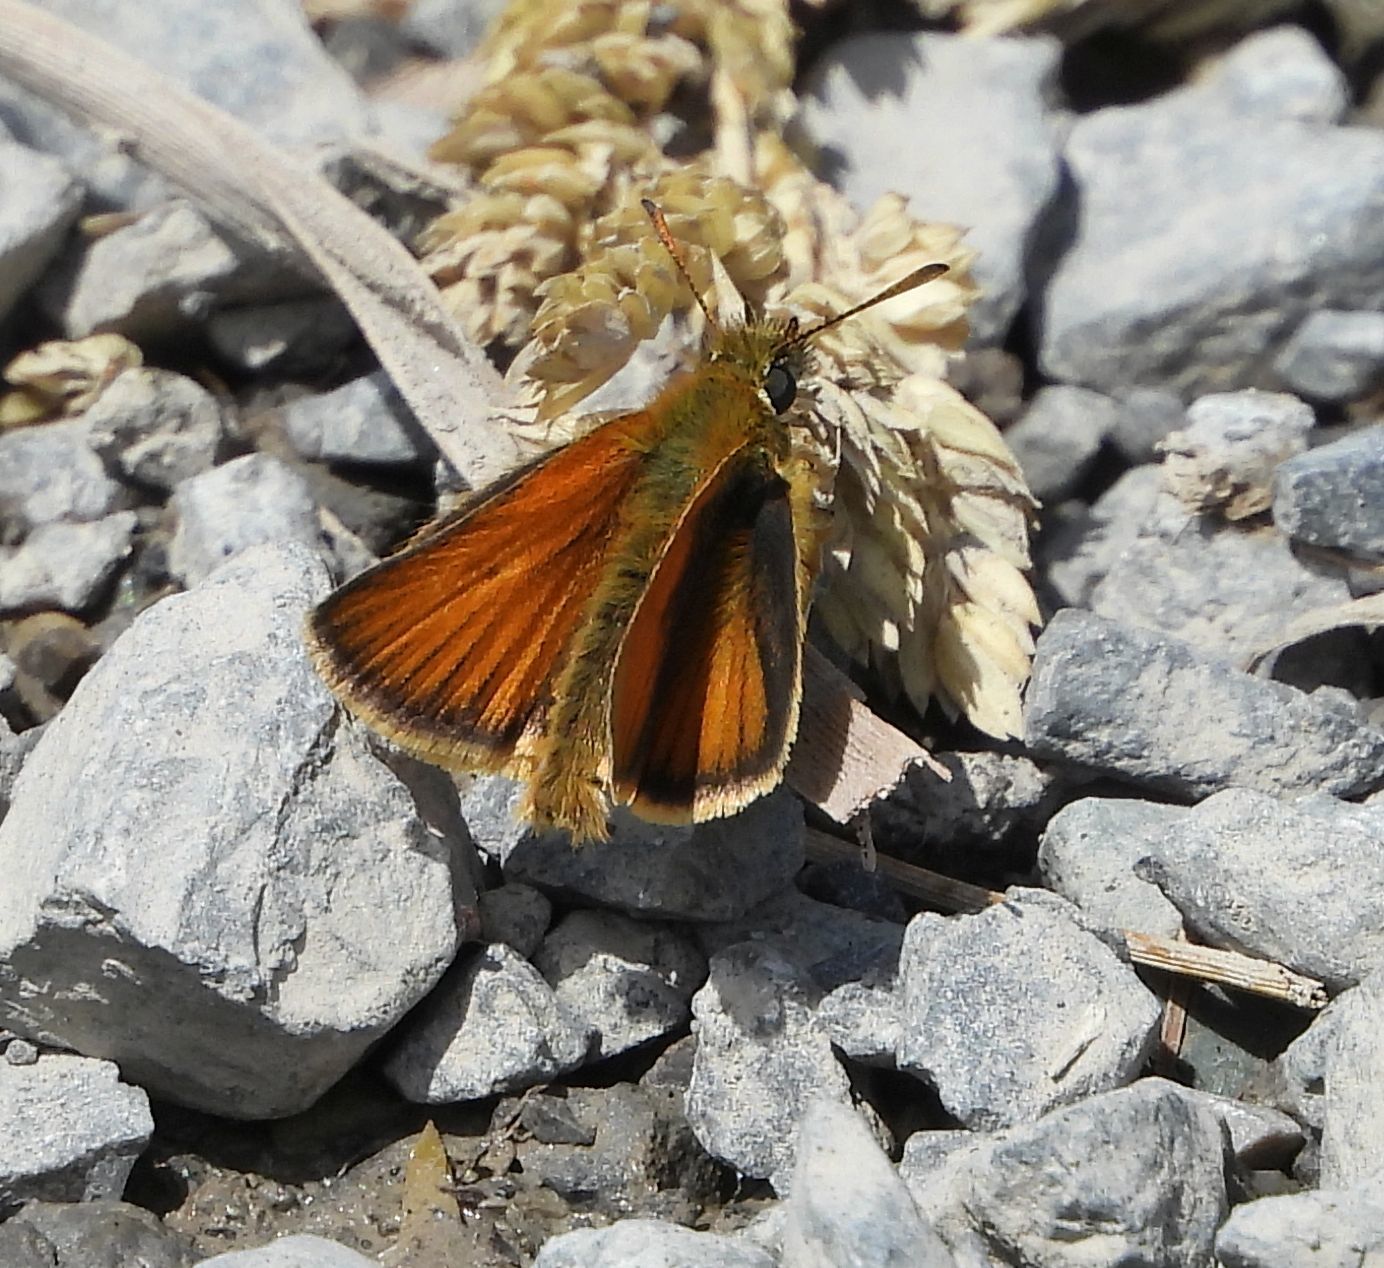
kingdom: Animalia
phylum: Arthropoda
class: Insecta
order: Lepidoptera
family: Hesperiidae
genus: Thymelicus
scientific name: Thymelicus lineola
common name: Essex skipper
